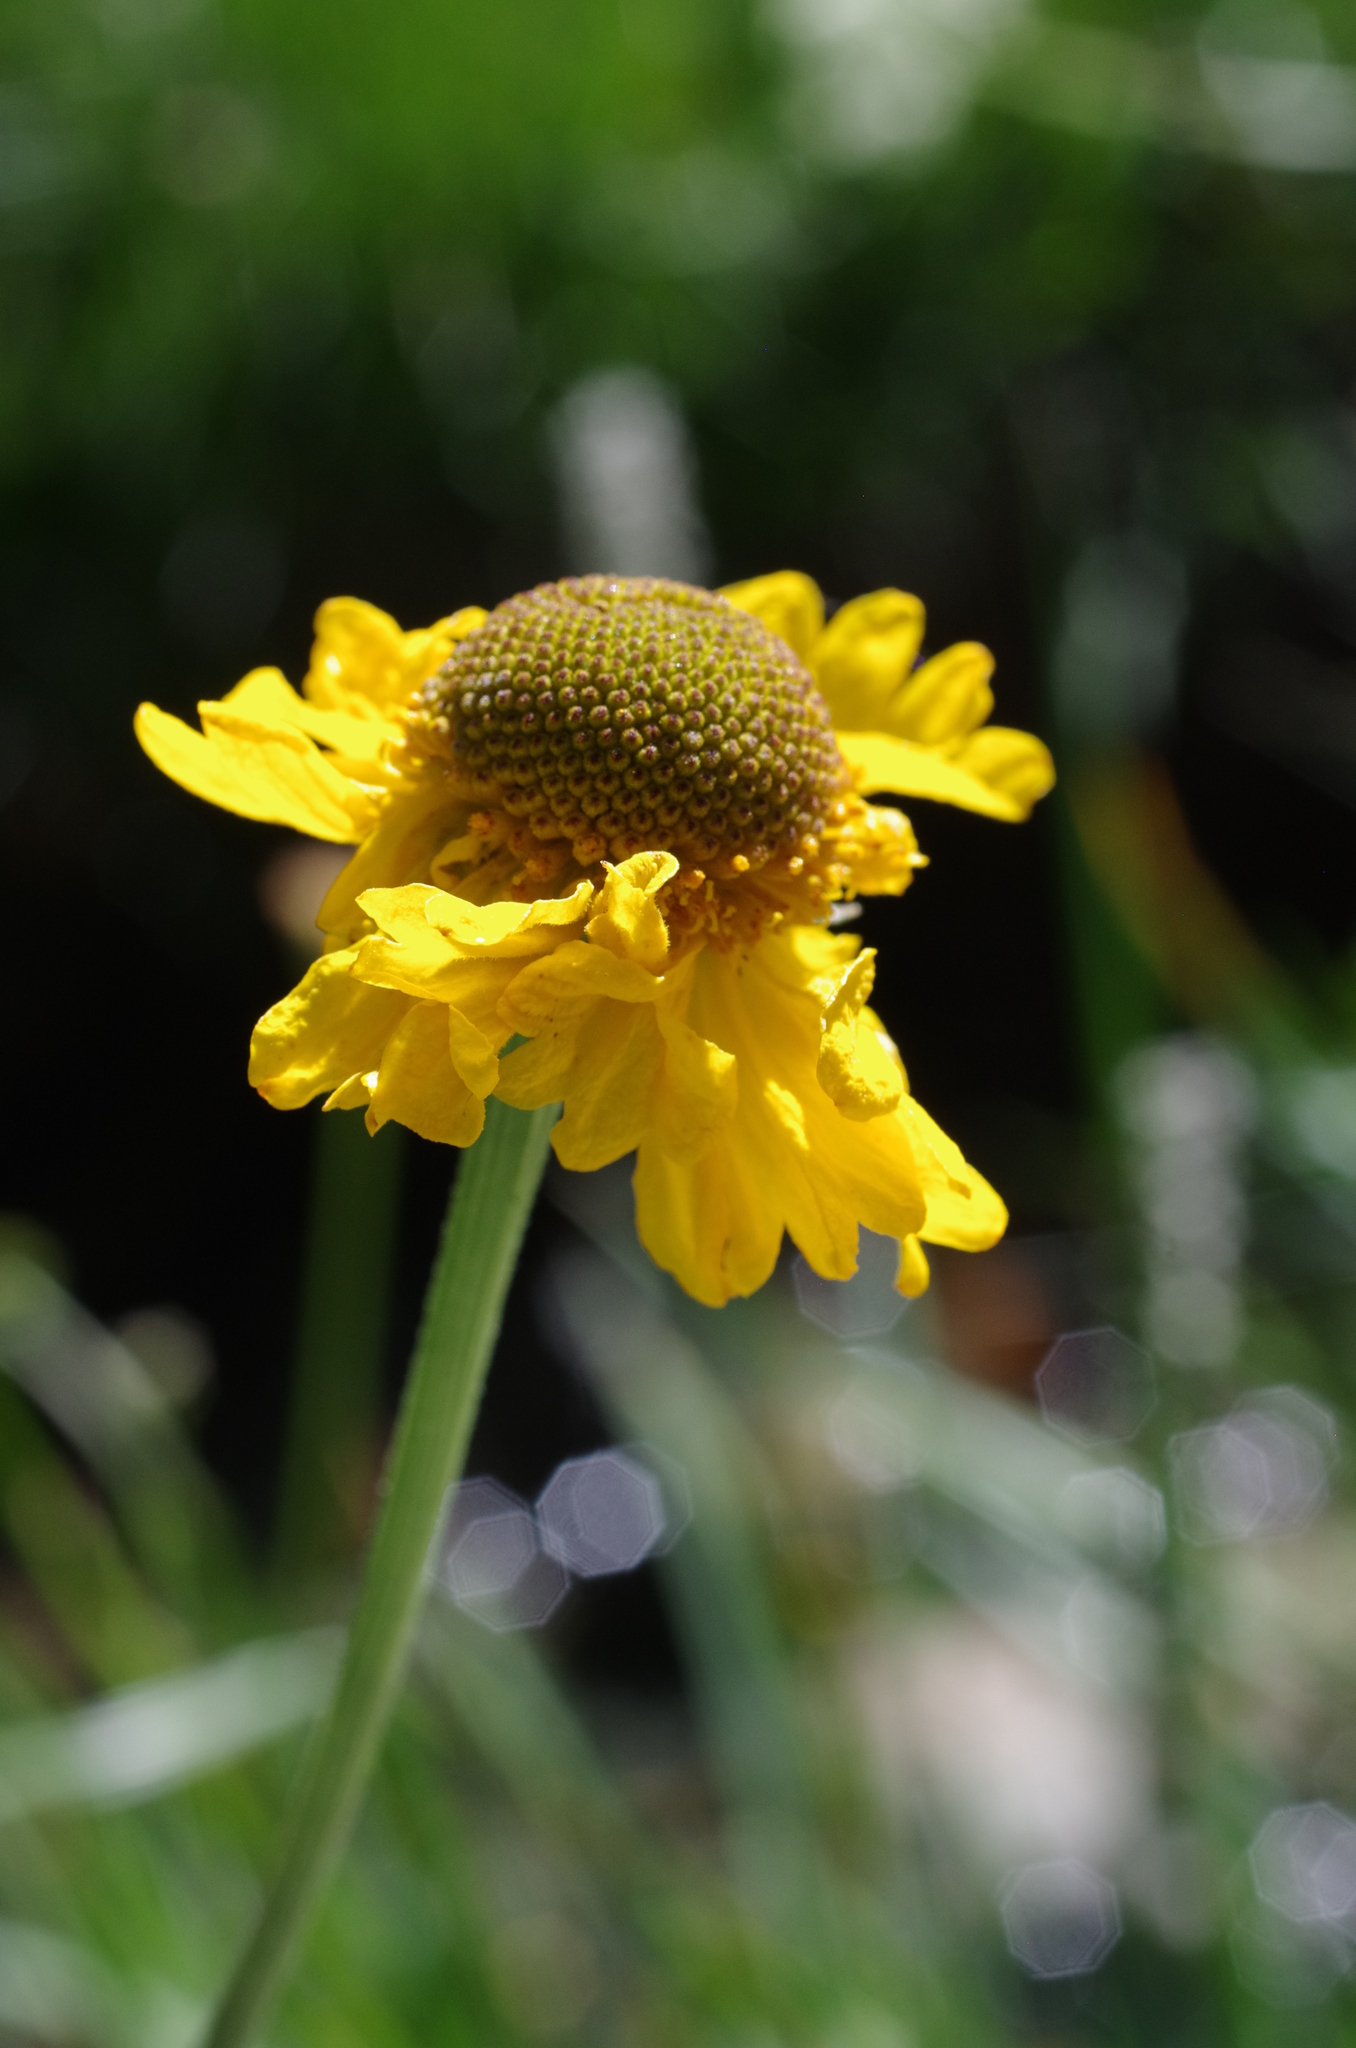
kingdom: Plantae
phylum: Tracheophyta
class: Magnoliopsida
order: Asterales
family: Asteraceae
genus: Helenium
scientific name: Helenium bigelovii
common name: Bigelow's sneezeweed
